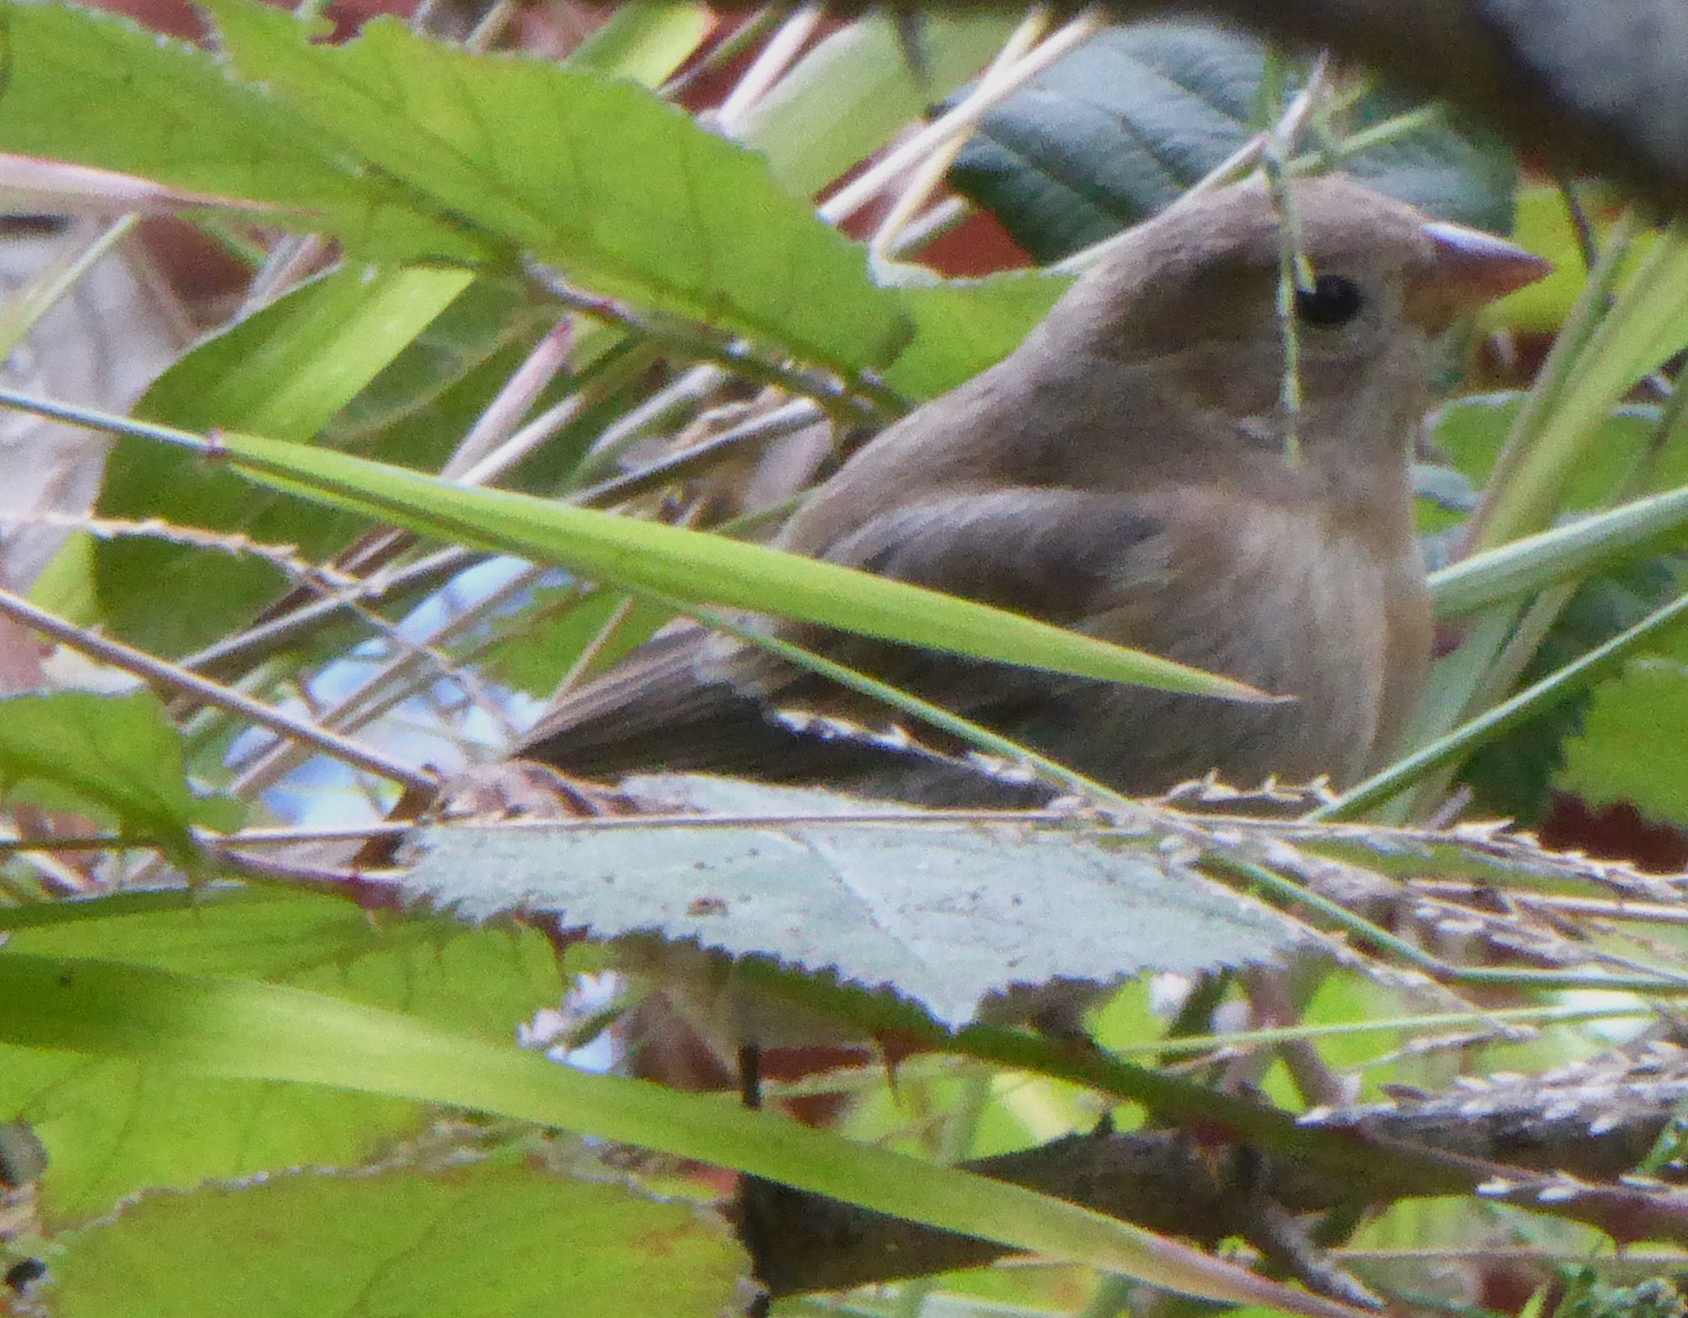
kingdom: Animalia
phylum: Chordata
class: Aves
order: Passeriformes
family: Cardinalidae
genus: Passerina
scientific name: Passerina amoena
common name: Lazuli bunting
